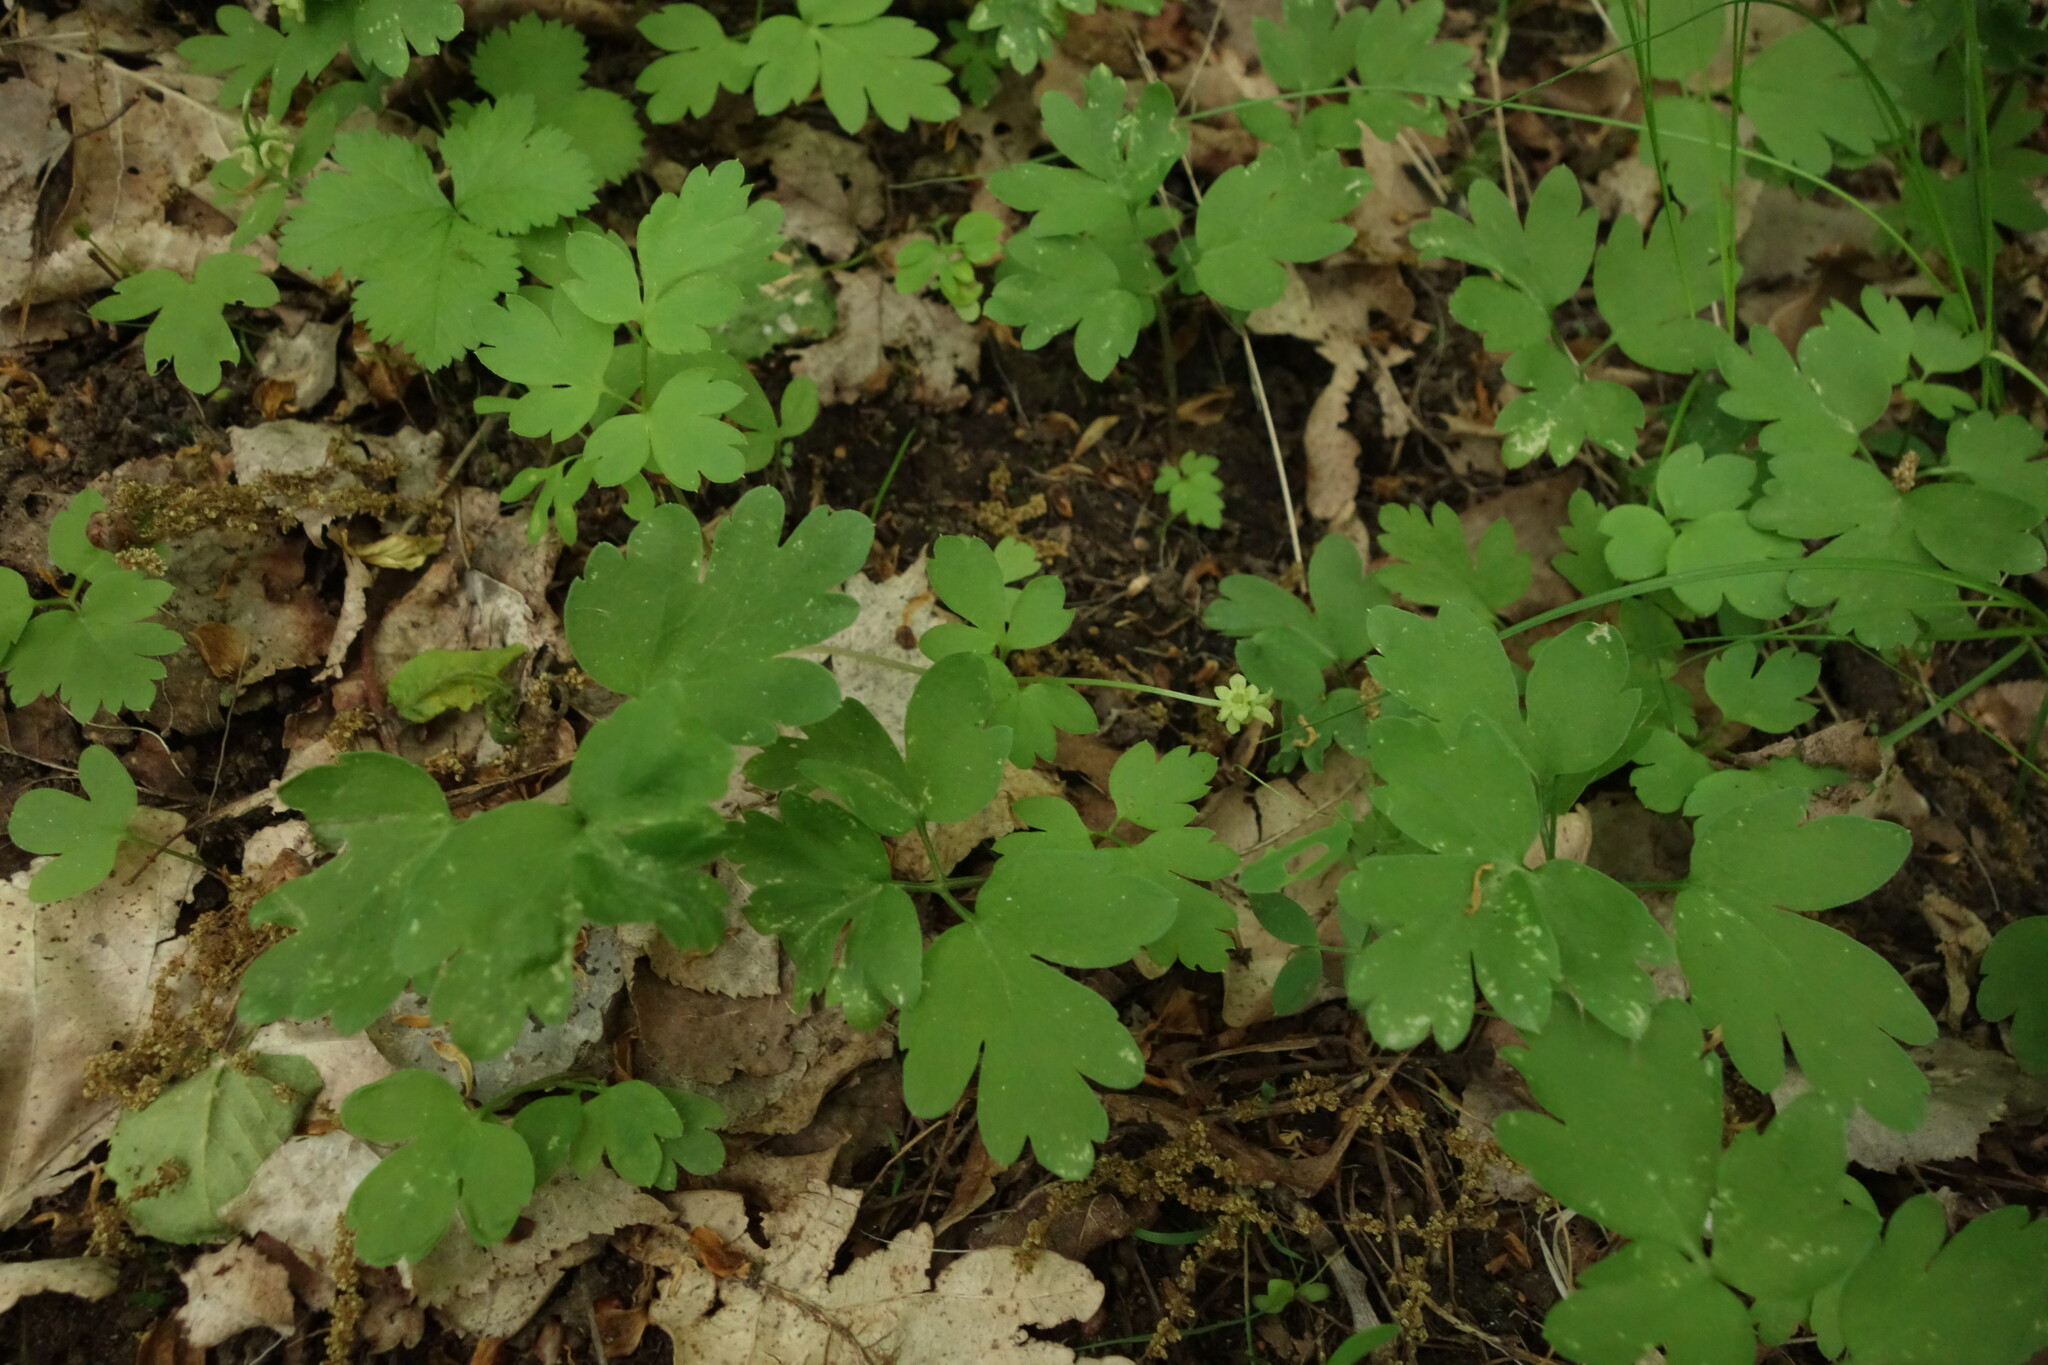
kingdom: Plantae
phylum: Tracheophyta
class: Magnoliopsida
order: Dipsacales
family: Viburnaceae
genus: Adoxa
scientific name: Adoxa moschatellina
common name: Moschatel
